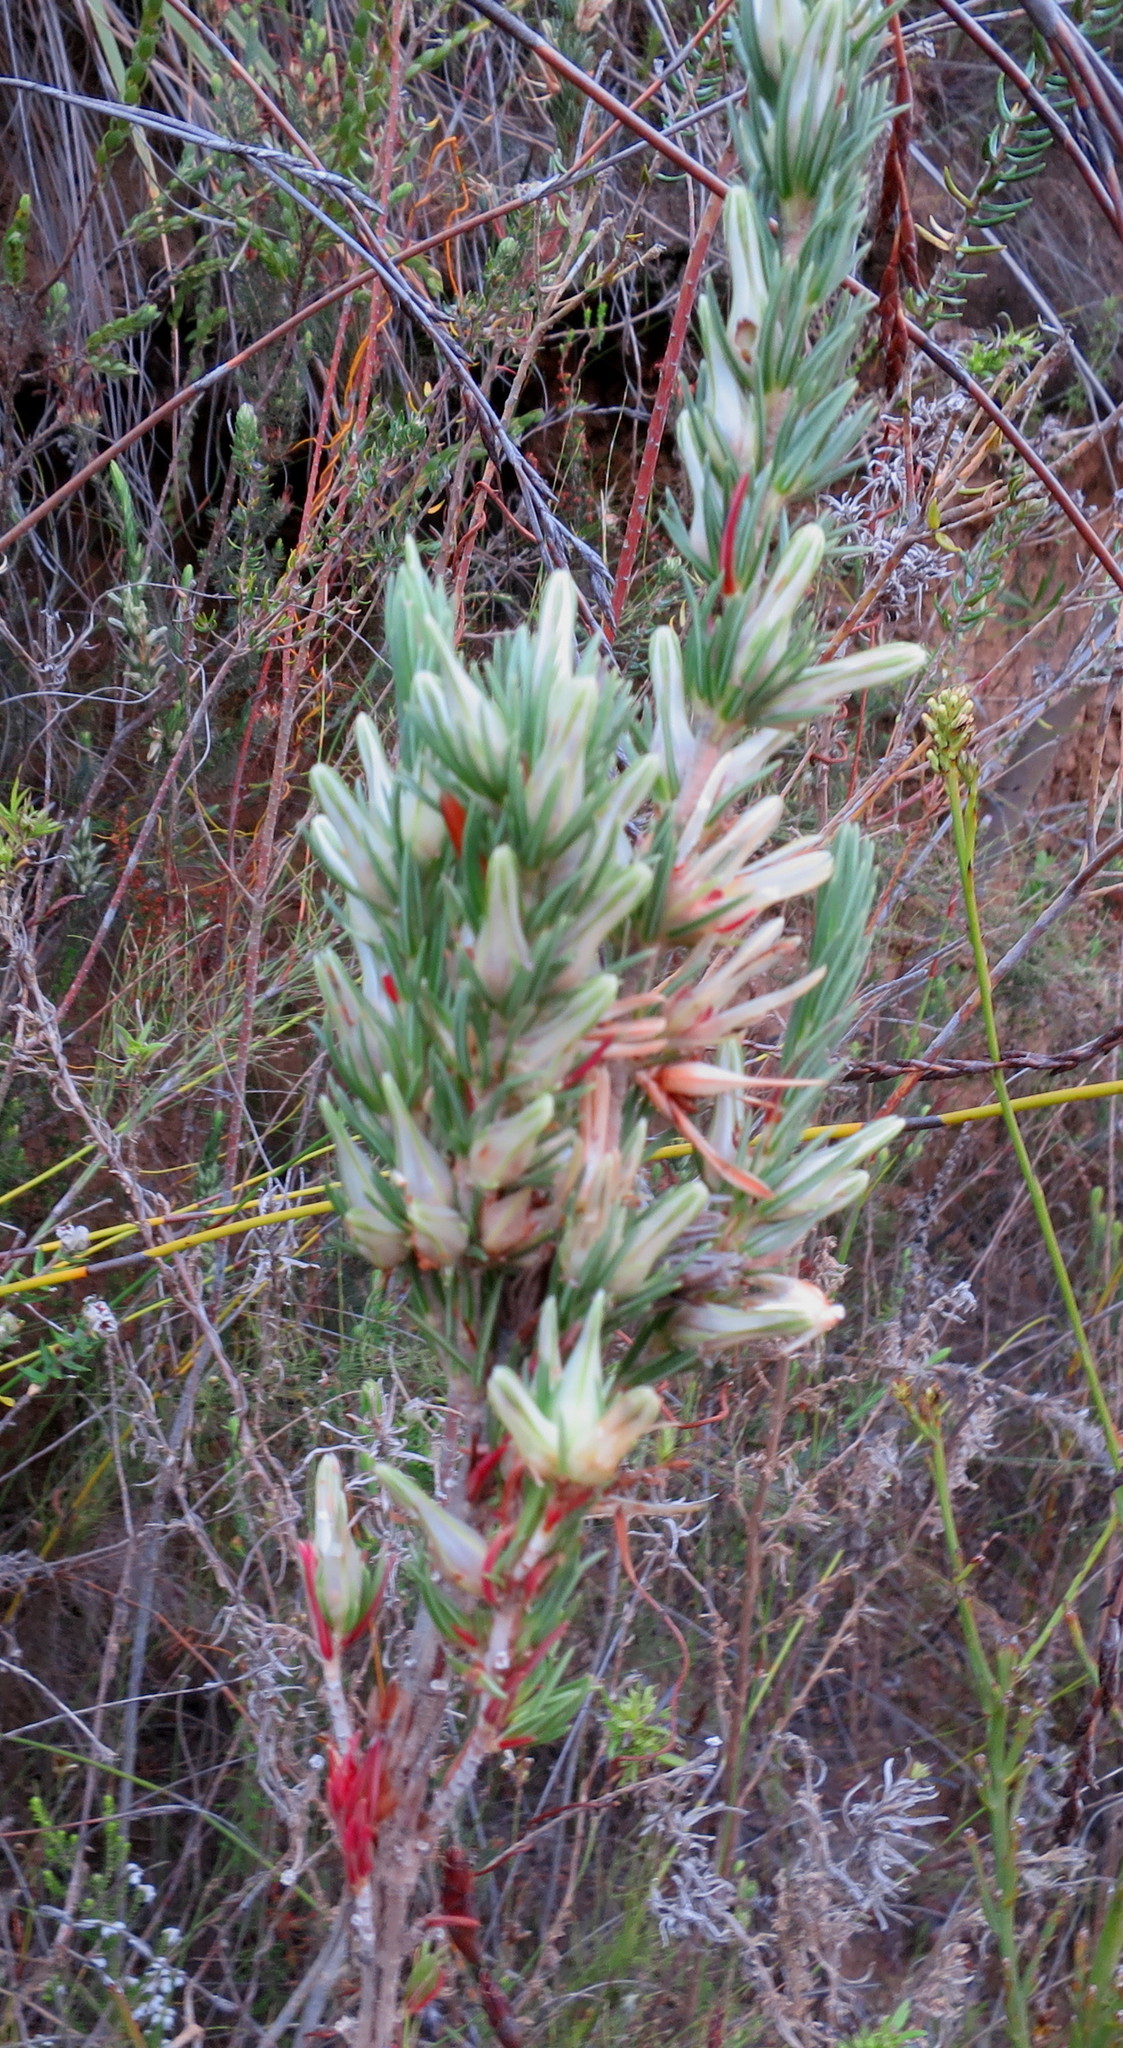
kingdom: Plantae
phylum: Tracheophyta
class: Magnoliopsida
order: Ericales
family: Ericaceae
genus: Erica
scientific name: Erica nabea
